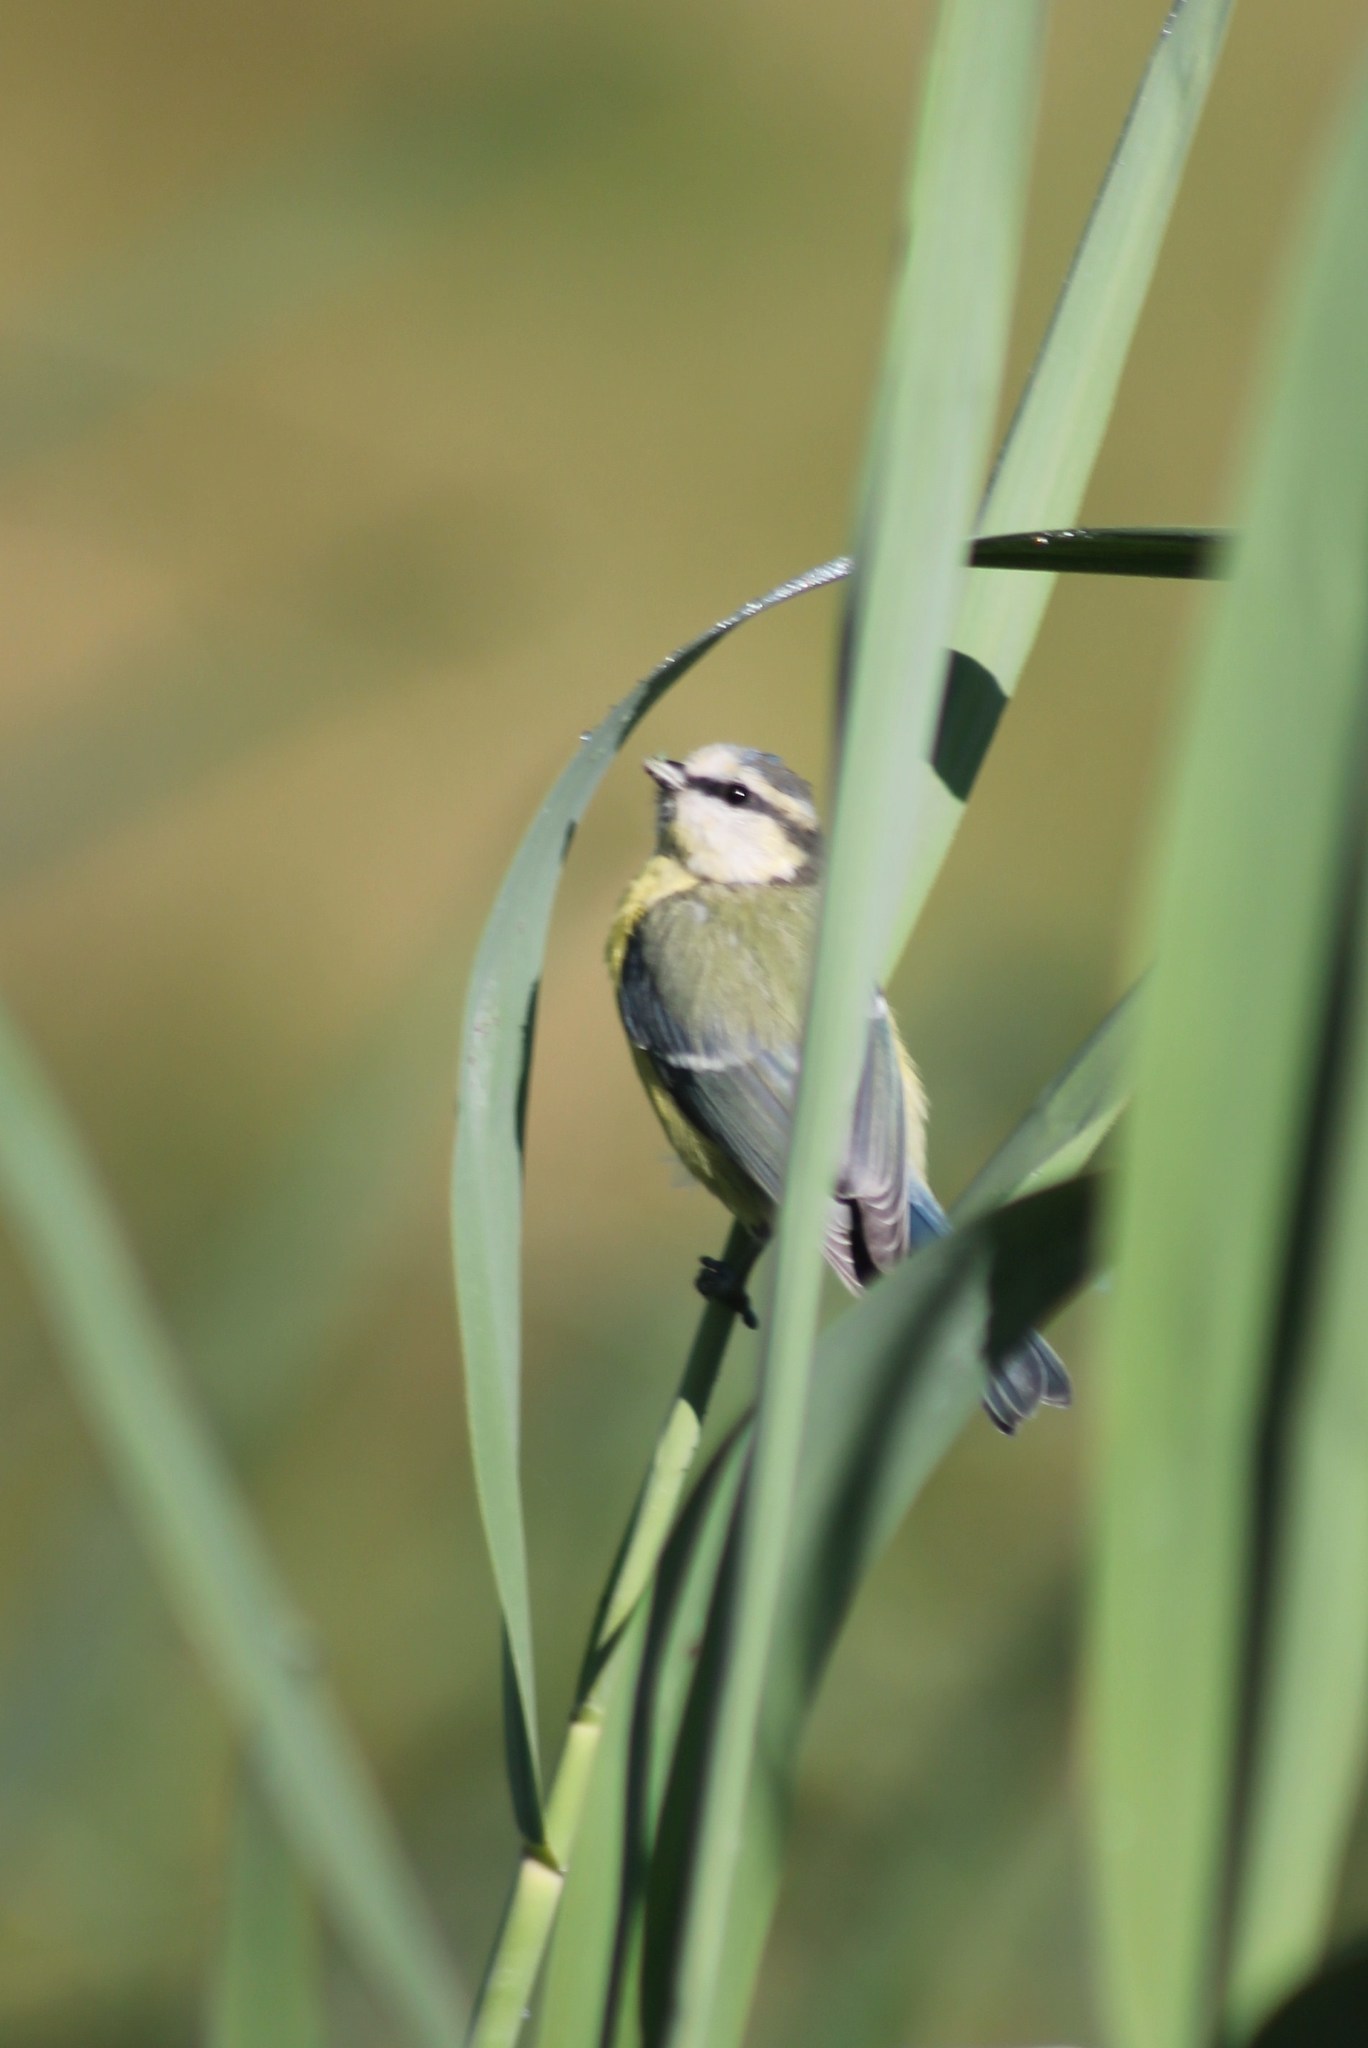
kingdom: Animalia
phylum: Chordata
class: Aves
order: Passeriformes
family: Paridae
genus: Cyanistes
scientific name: Cyanistes caeruleus
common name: Eurasian blue tit
